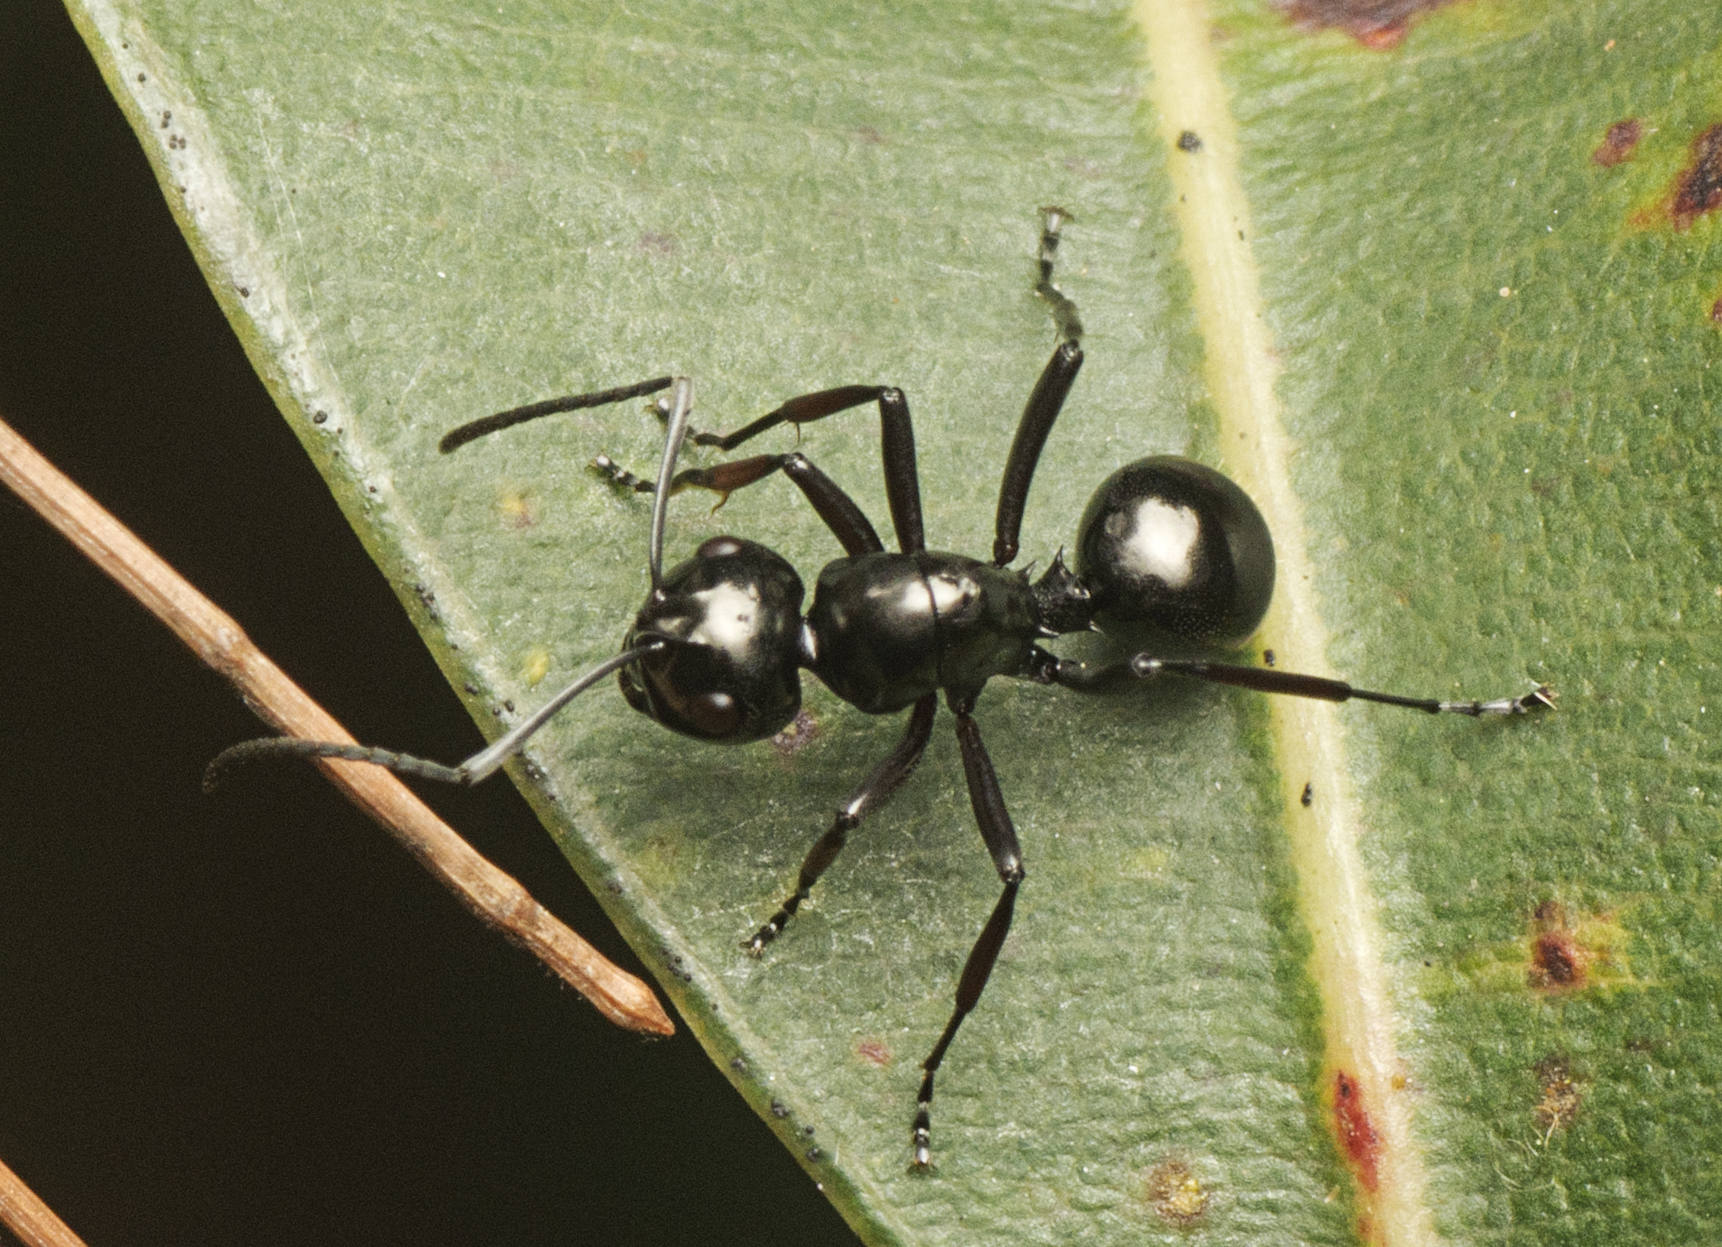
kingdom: Animalia
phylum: Arthropoda
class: Insecta
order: Hymenoptera
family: Formicidae
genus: Polyrhachis
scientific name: Polyrhachis australis
